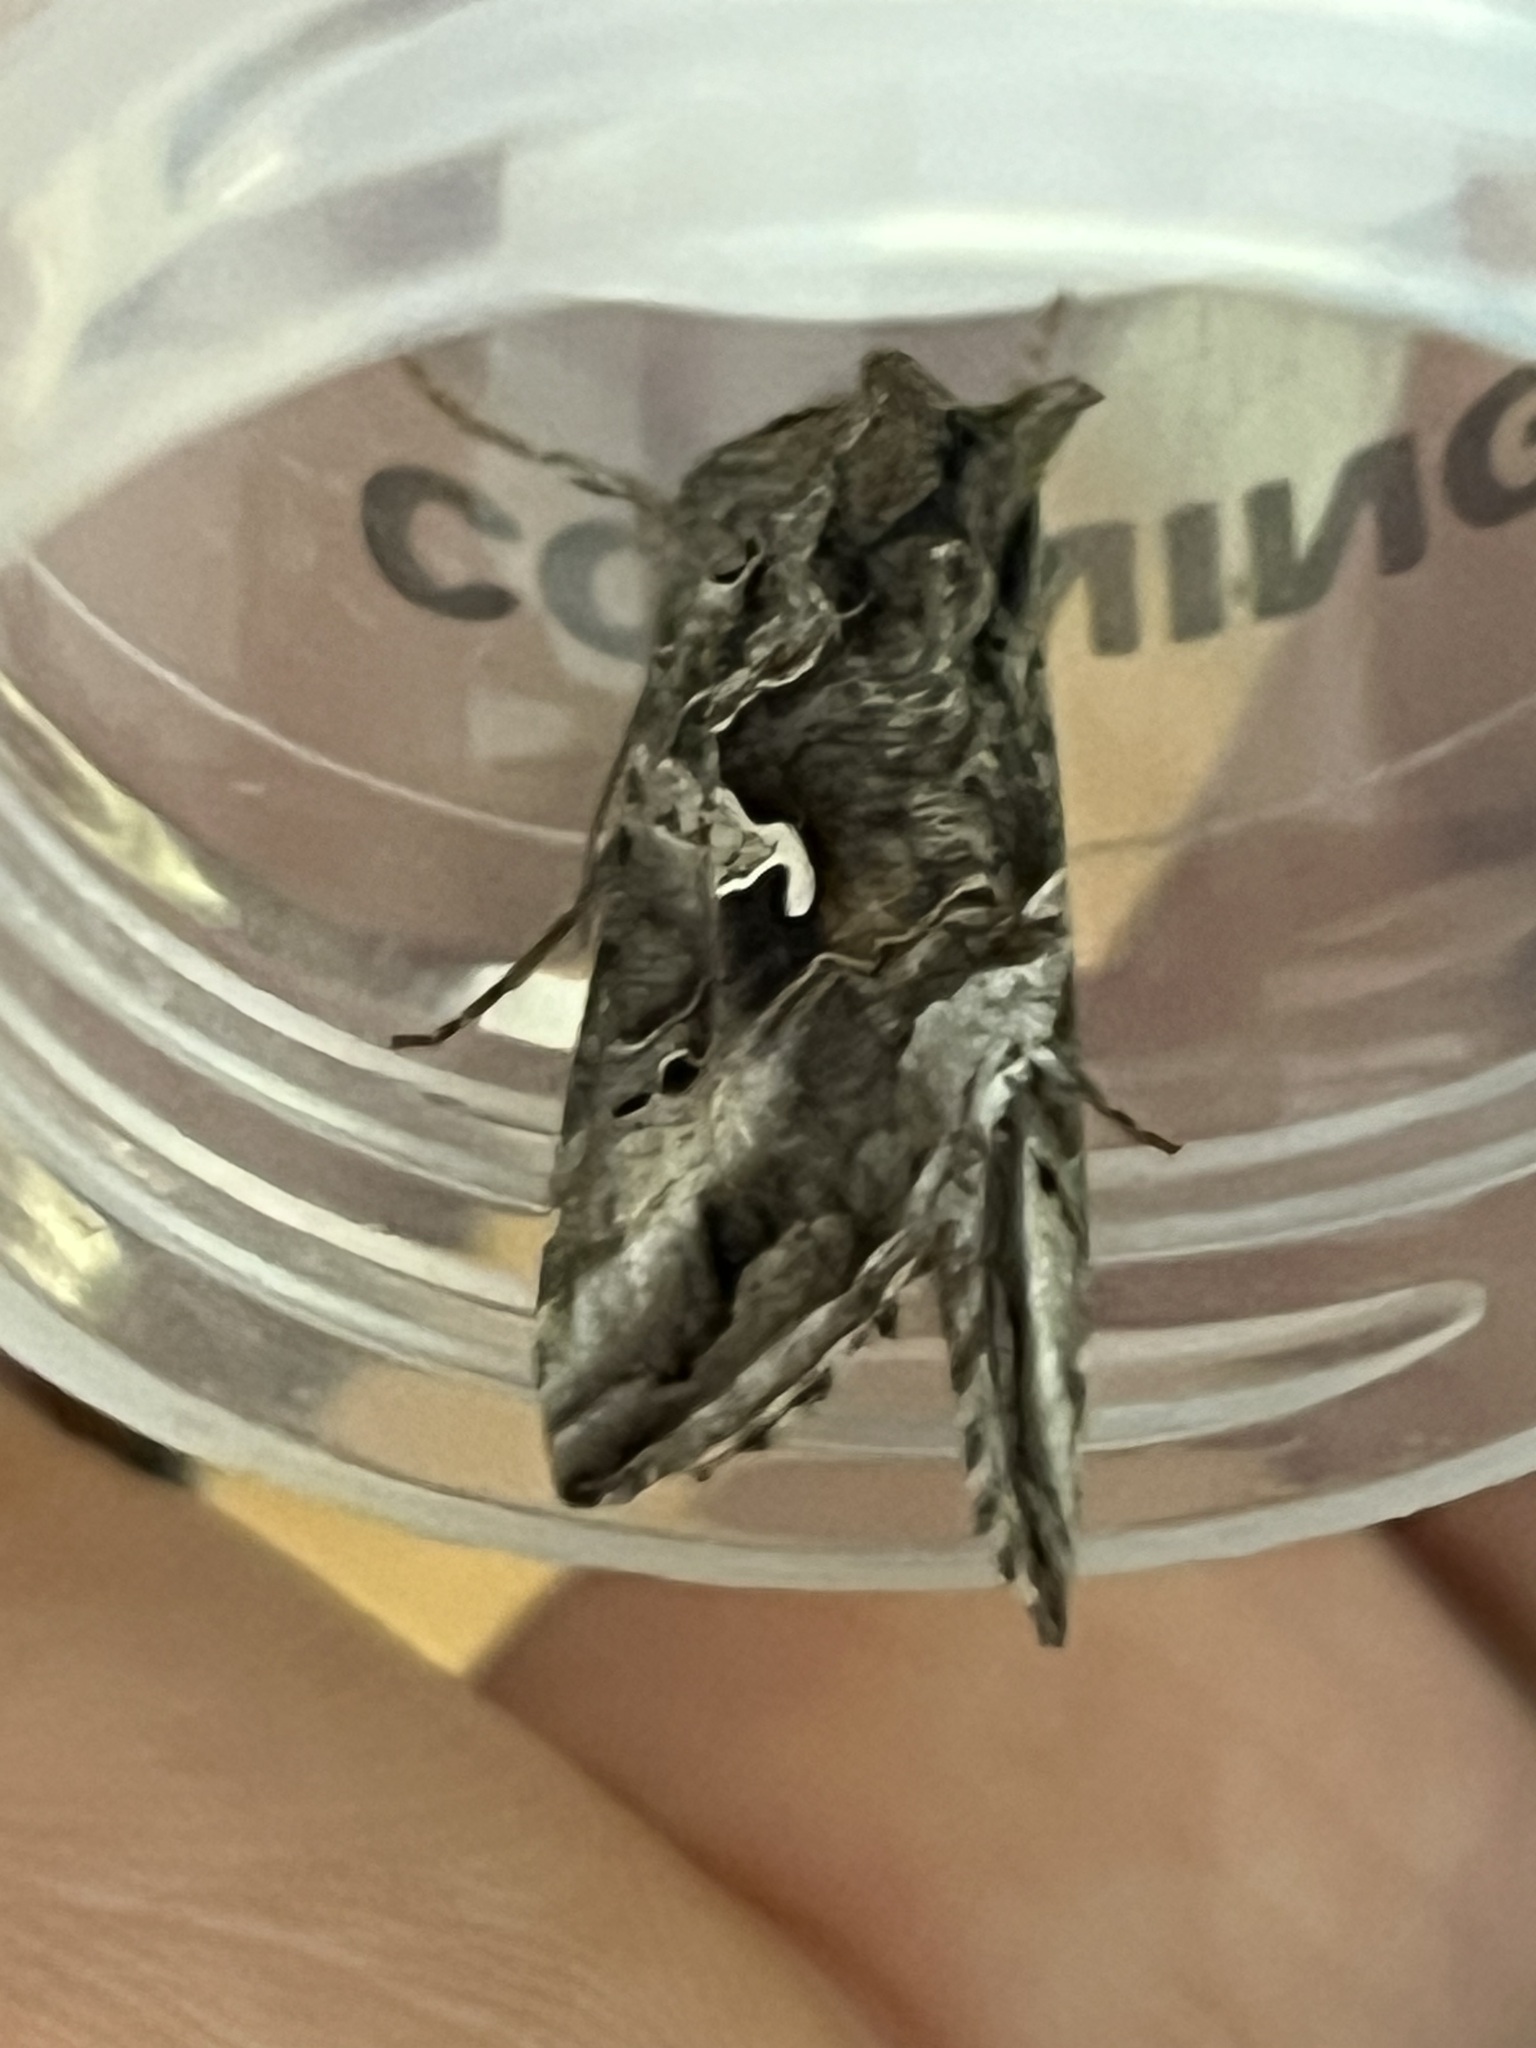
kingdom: Animalia
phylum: Arthropoda
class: Insecta
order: Lepidoptera
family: Noctuidae
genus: Autographa
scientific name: Autographa gamma
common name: Silver y
